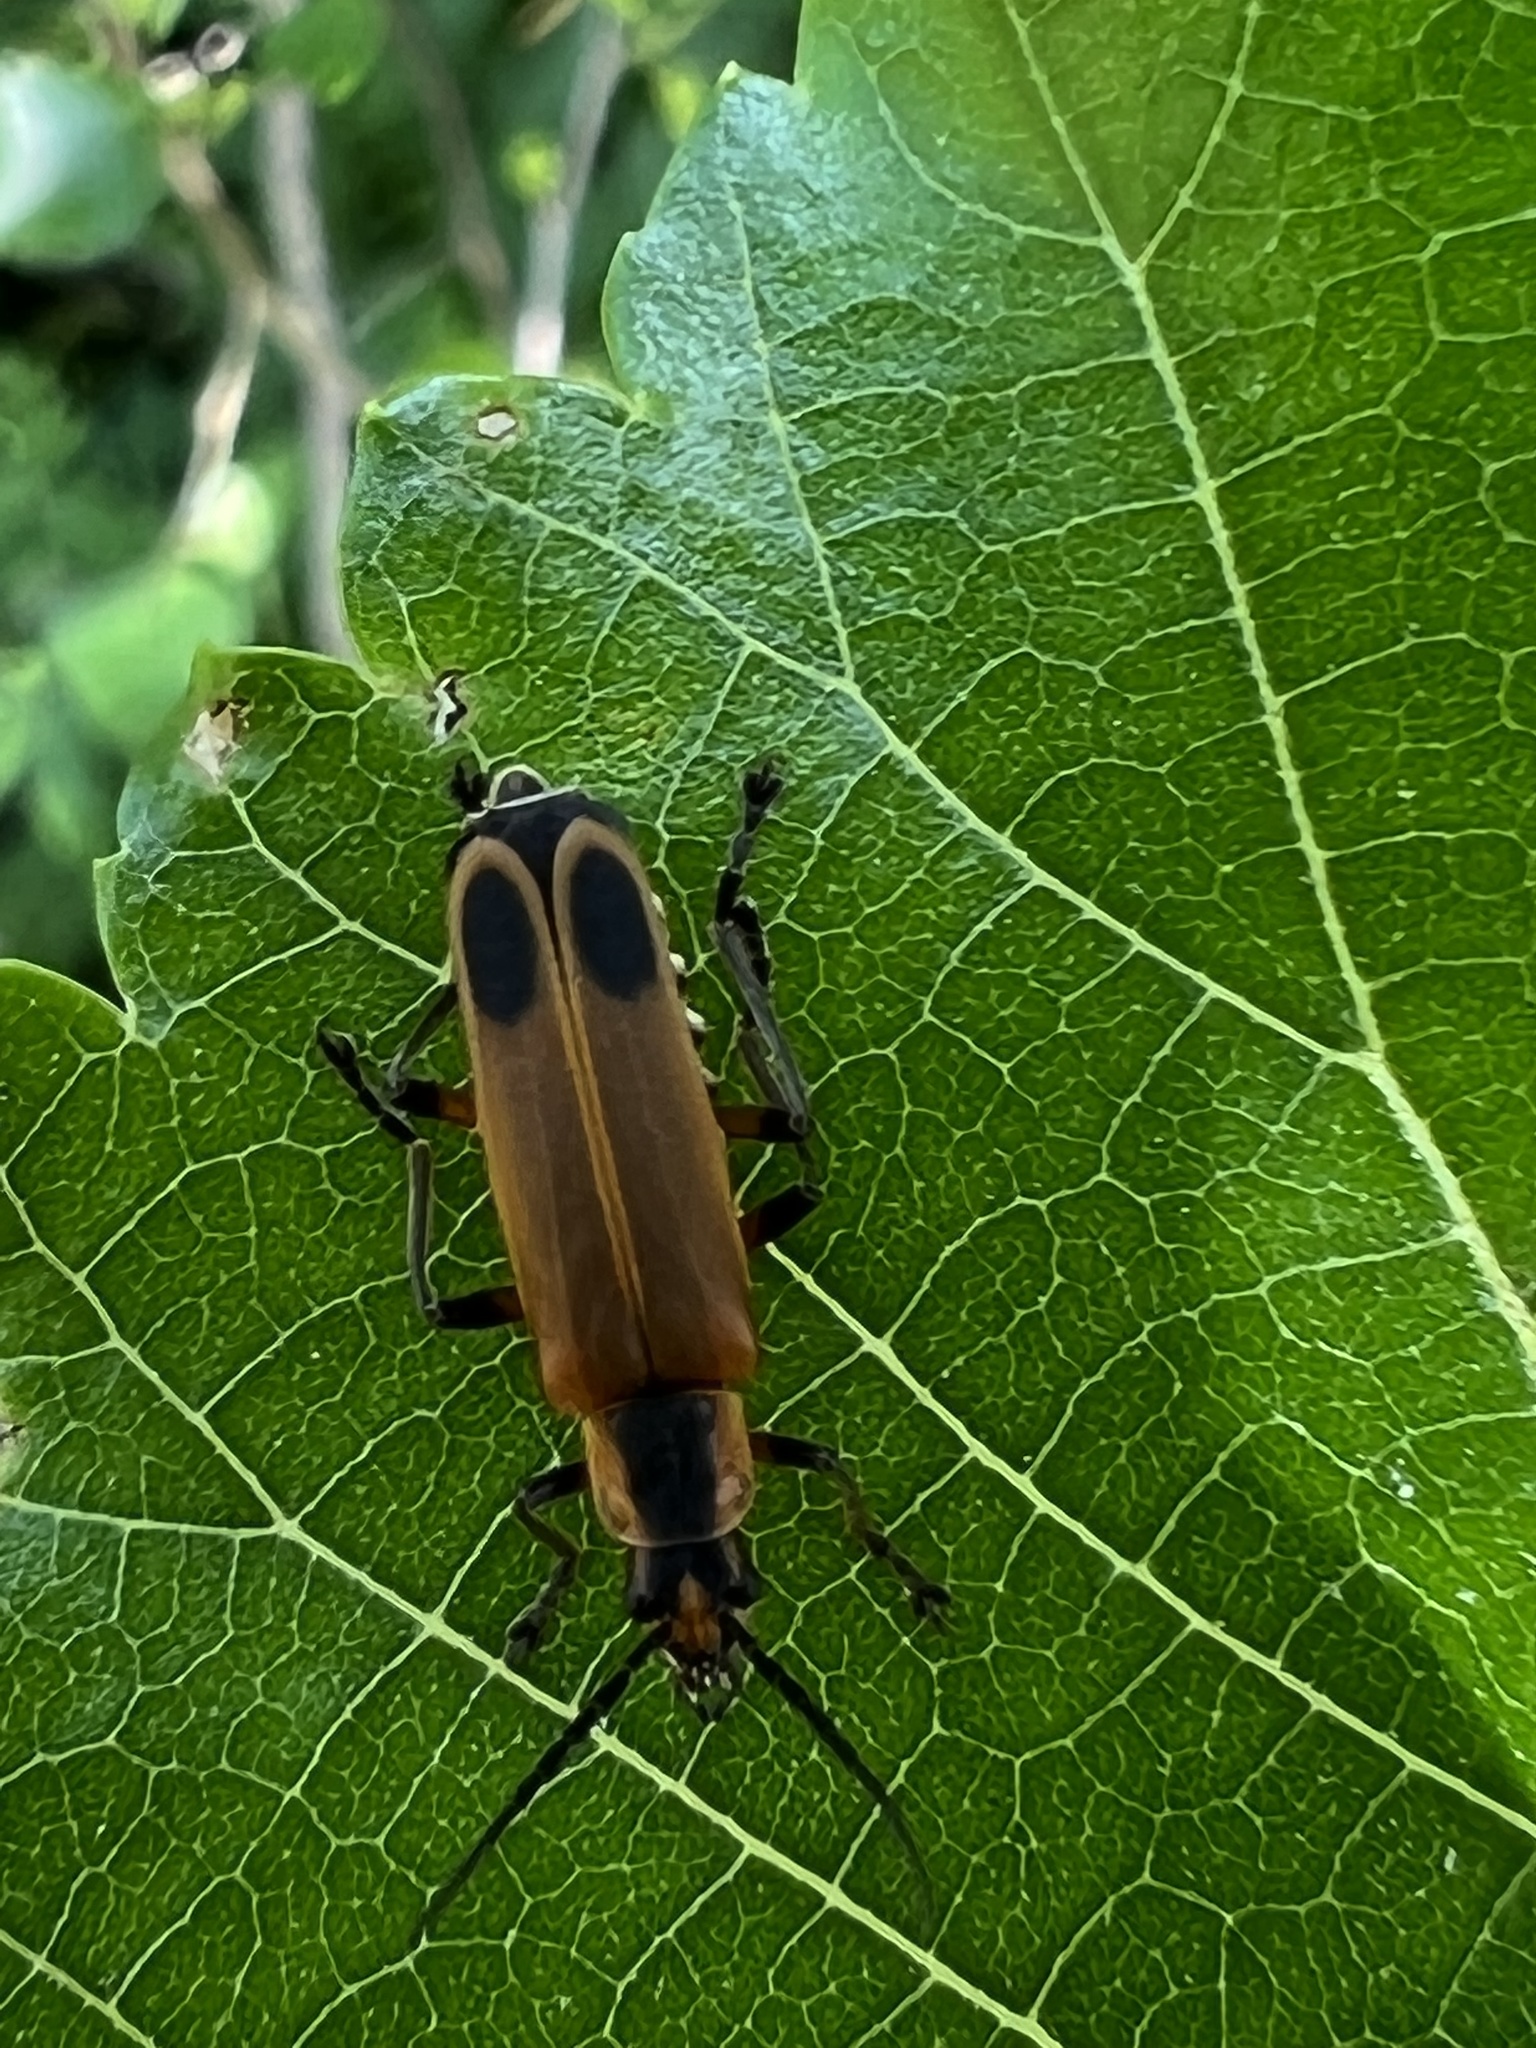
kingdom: Animalia
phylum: Arthropoda
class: Insecta
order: Coleoptera
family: Cantharidae
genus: Chauliognathus
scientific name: Chauliognathus marginatus
